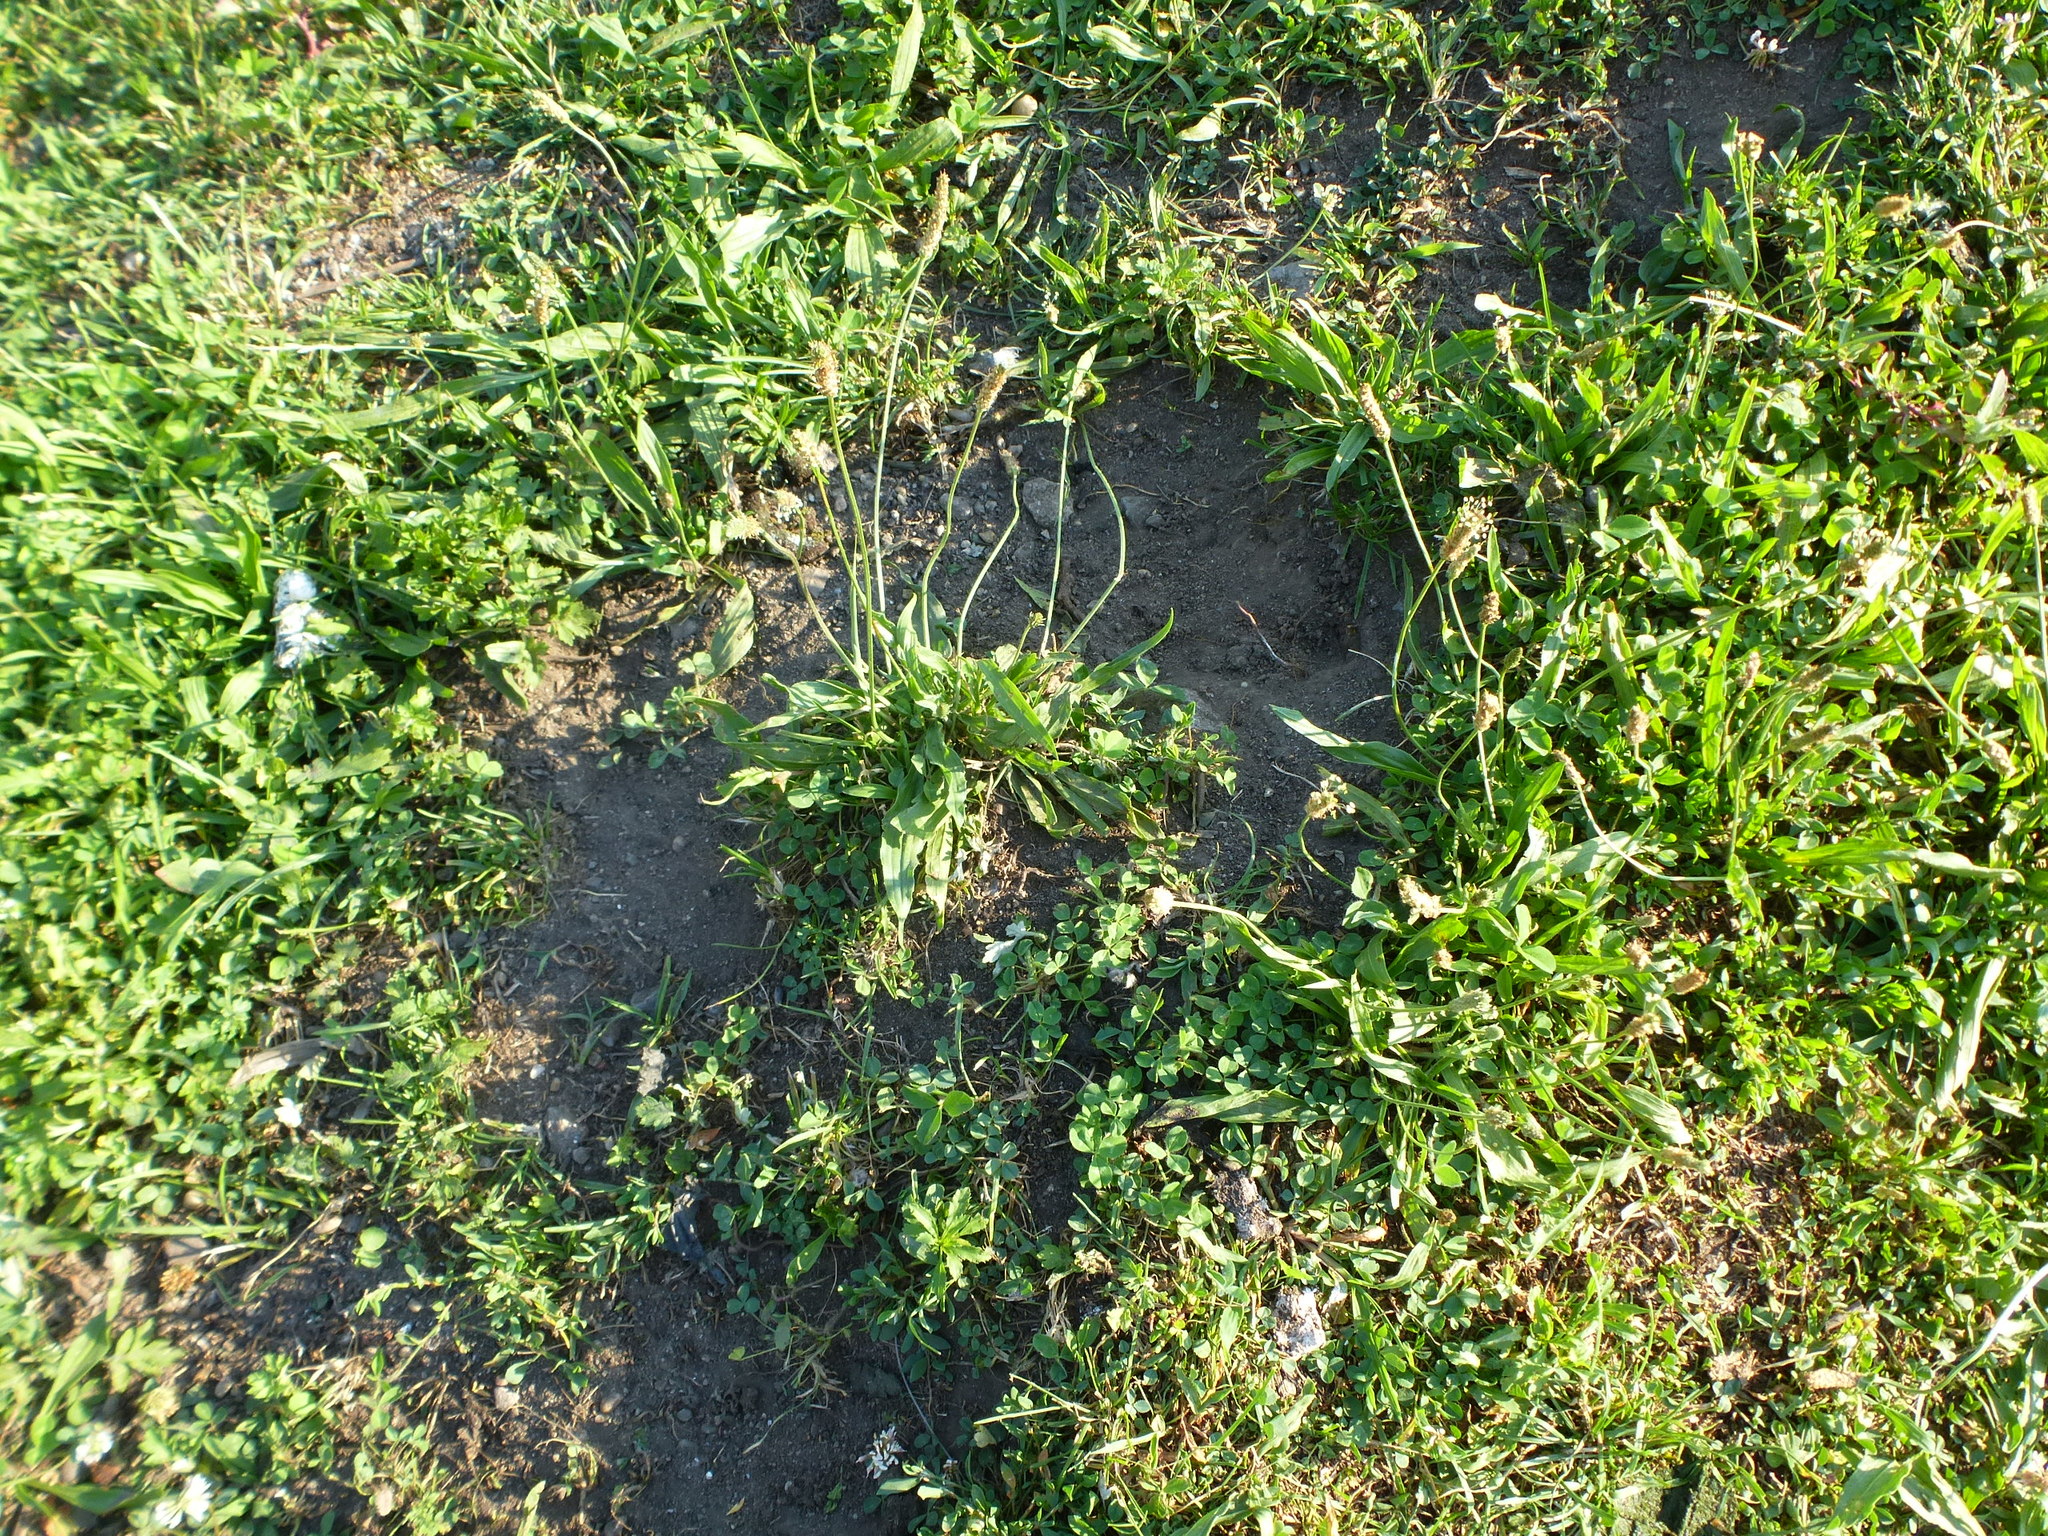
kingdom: Plantae
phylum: Tracheophyta
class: Magnoliopsida
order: Lamiales
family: Plantaginaceae
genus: Plantago
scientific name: Plantago lanceolata
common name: Ribwort plantain
